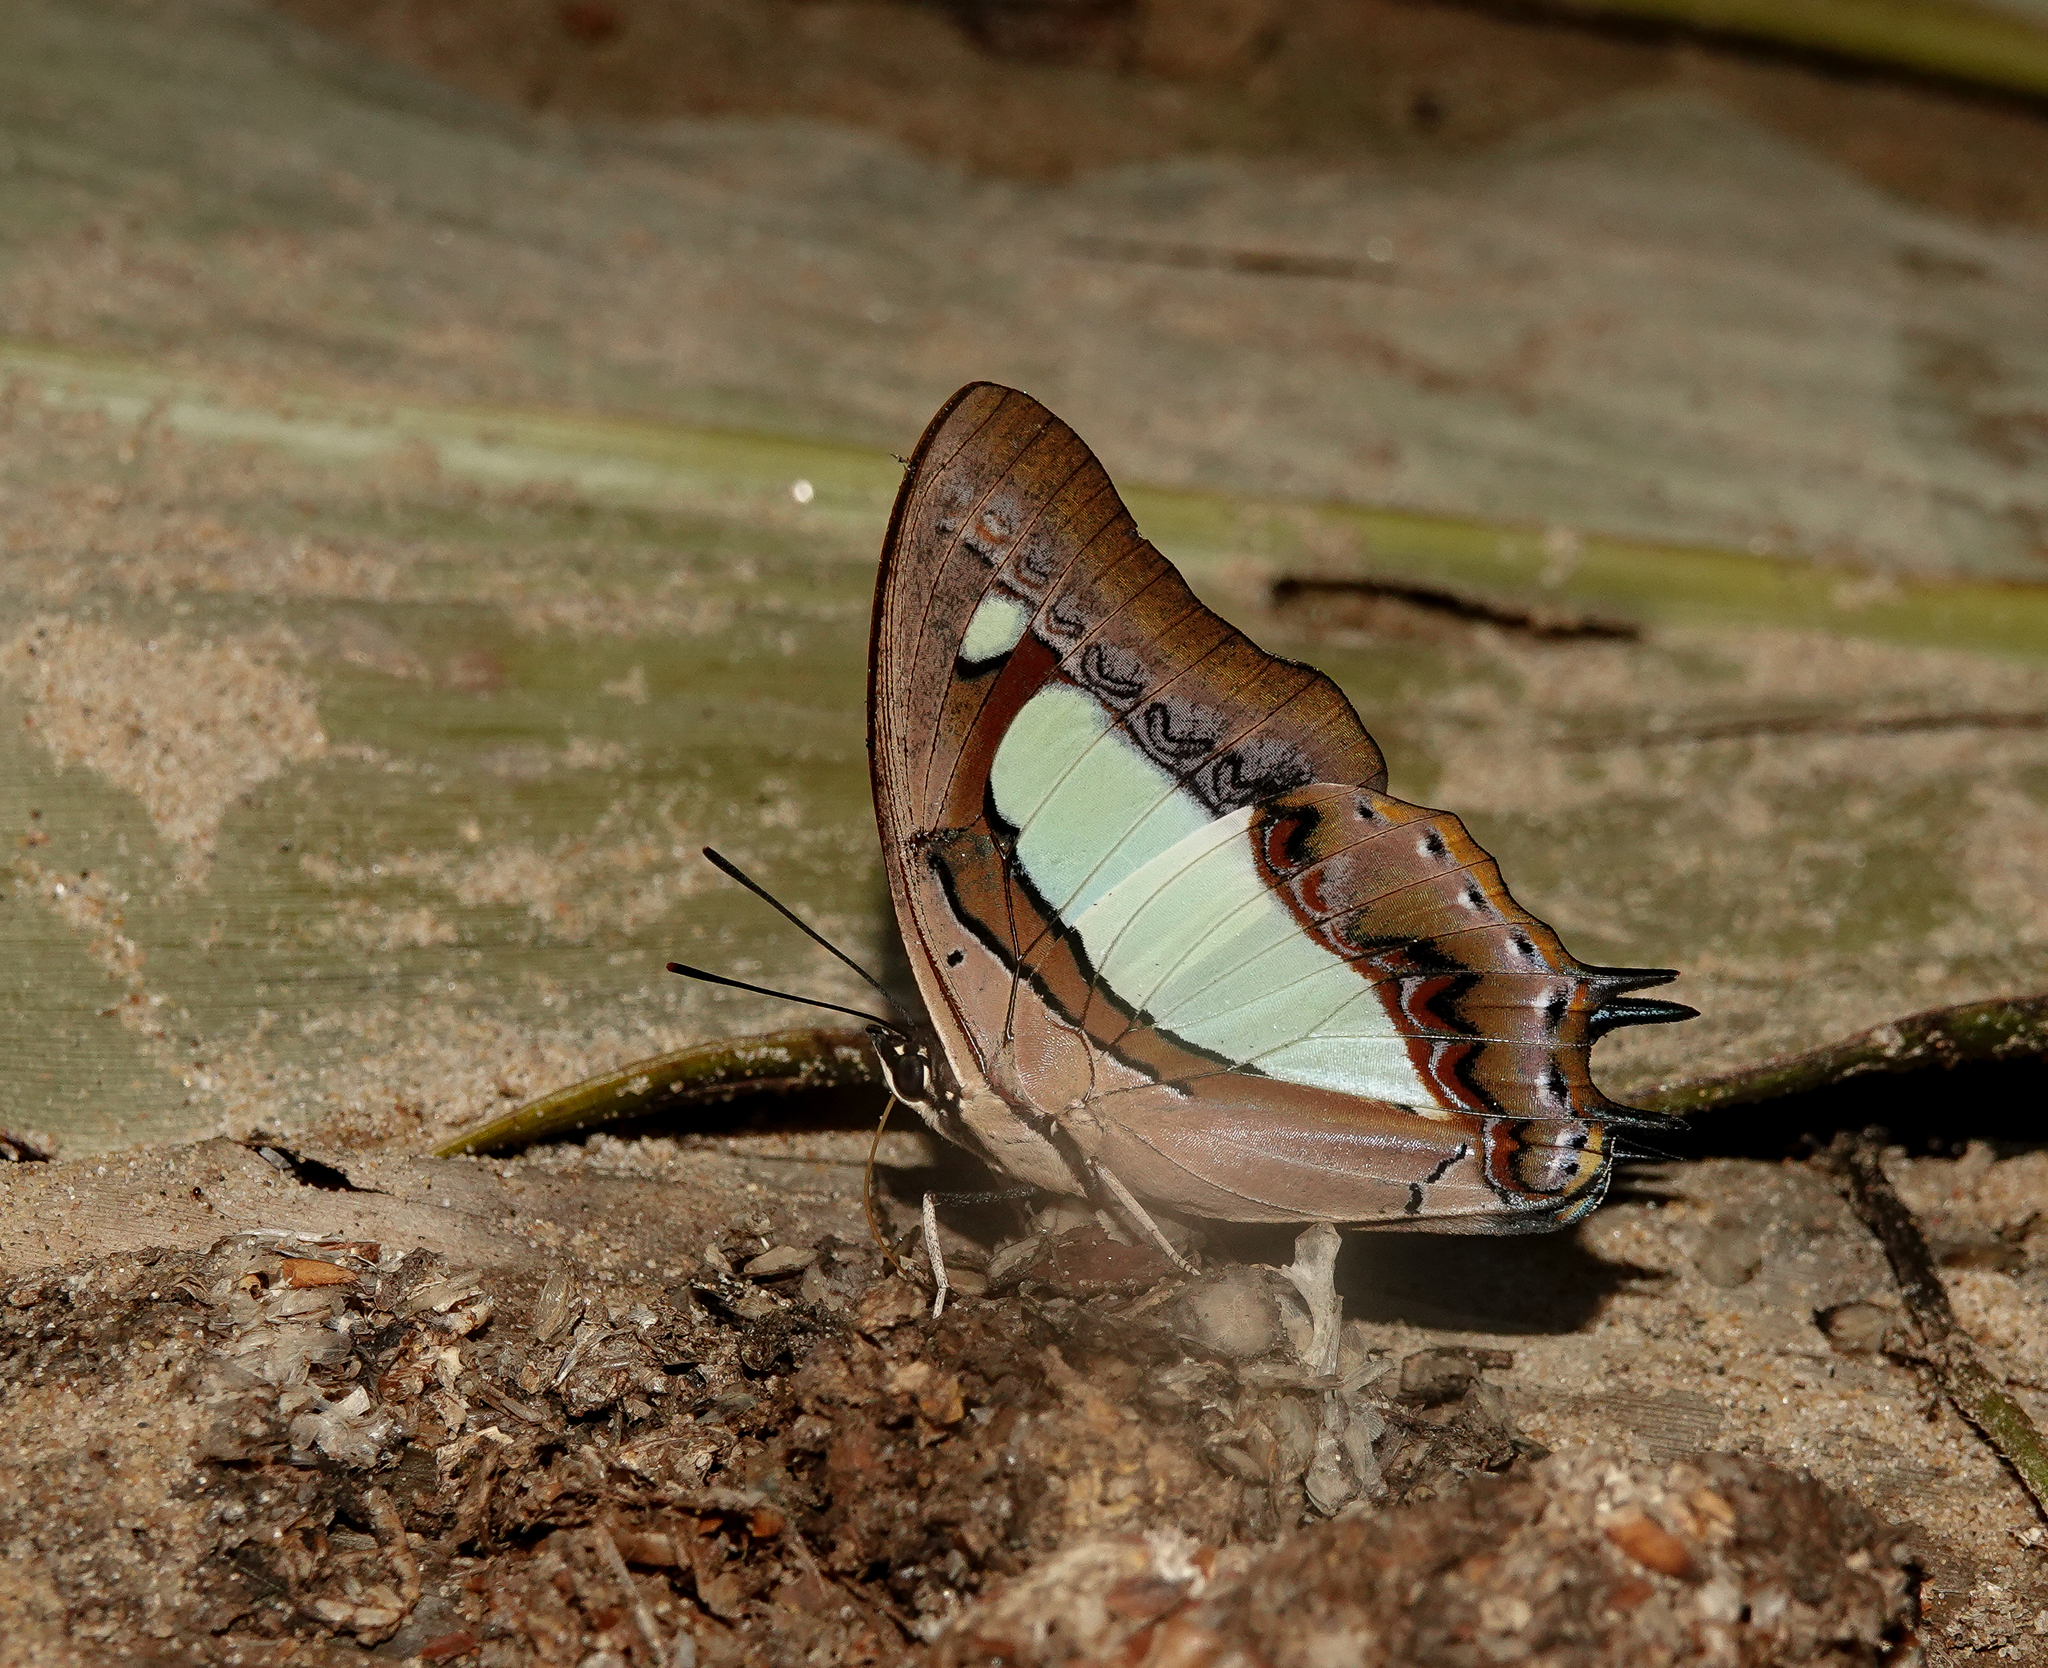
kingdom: Animalia
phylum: Arthropoda
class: Insecta
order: Lepidoptera
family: Nymphalidae
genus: Polyura
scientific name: Polyura athamas
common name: Common nawab
